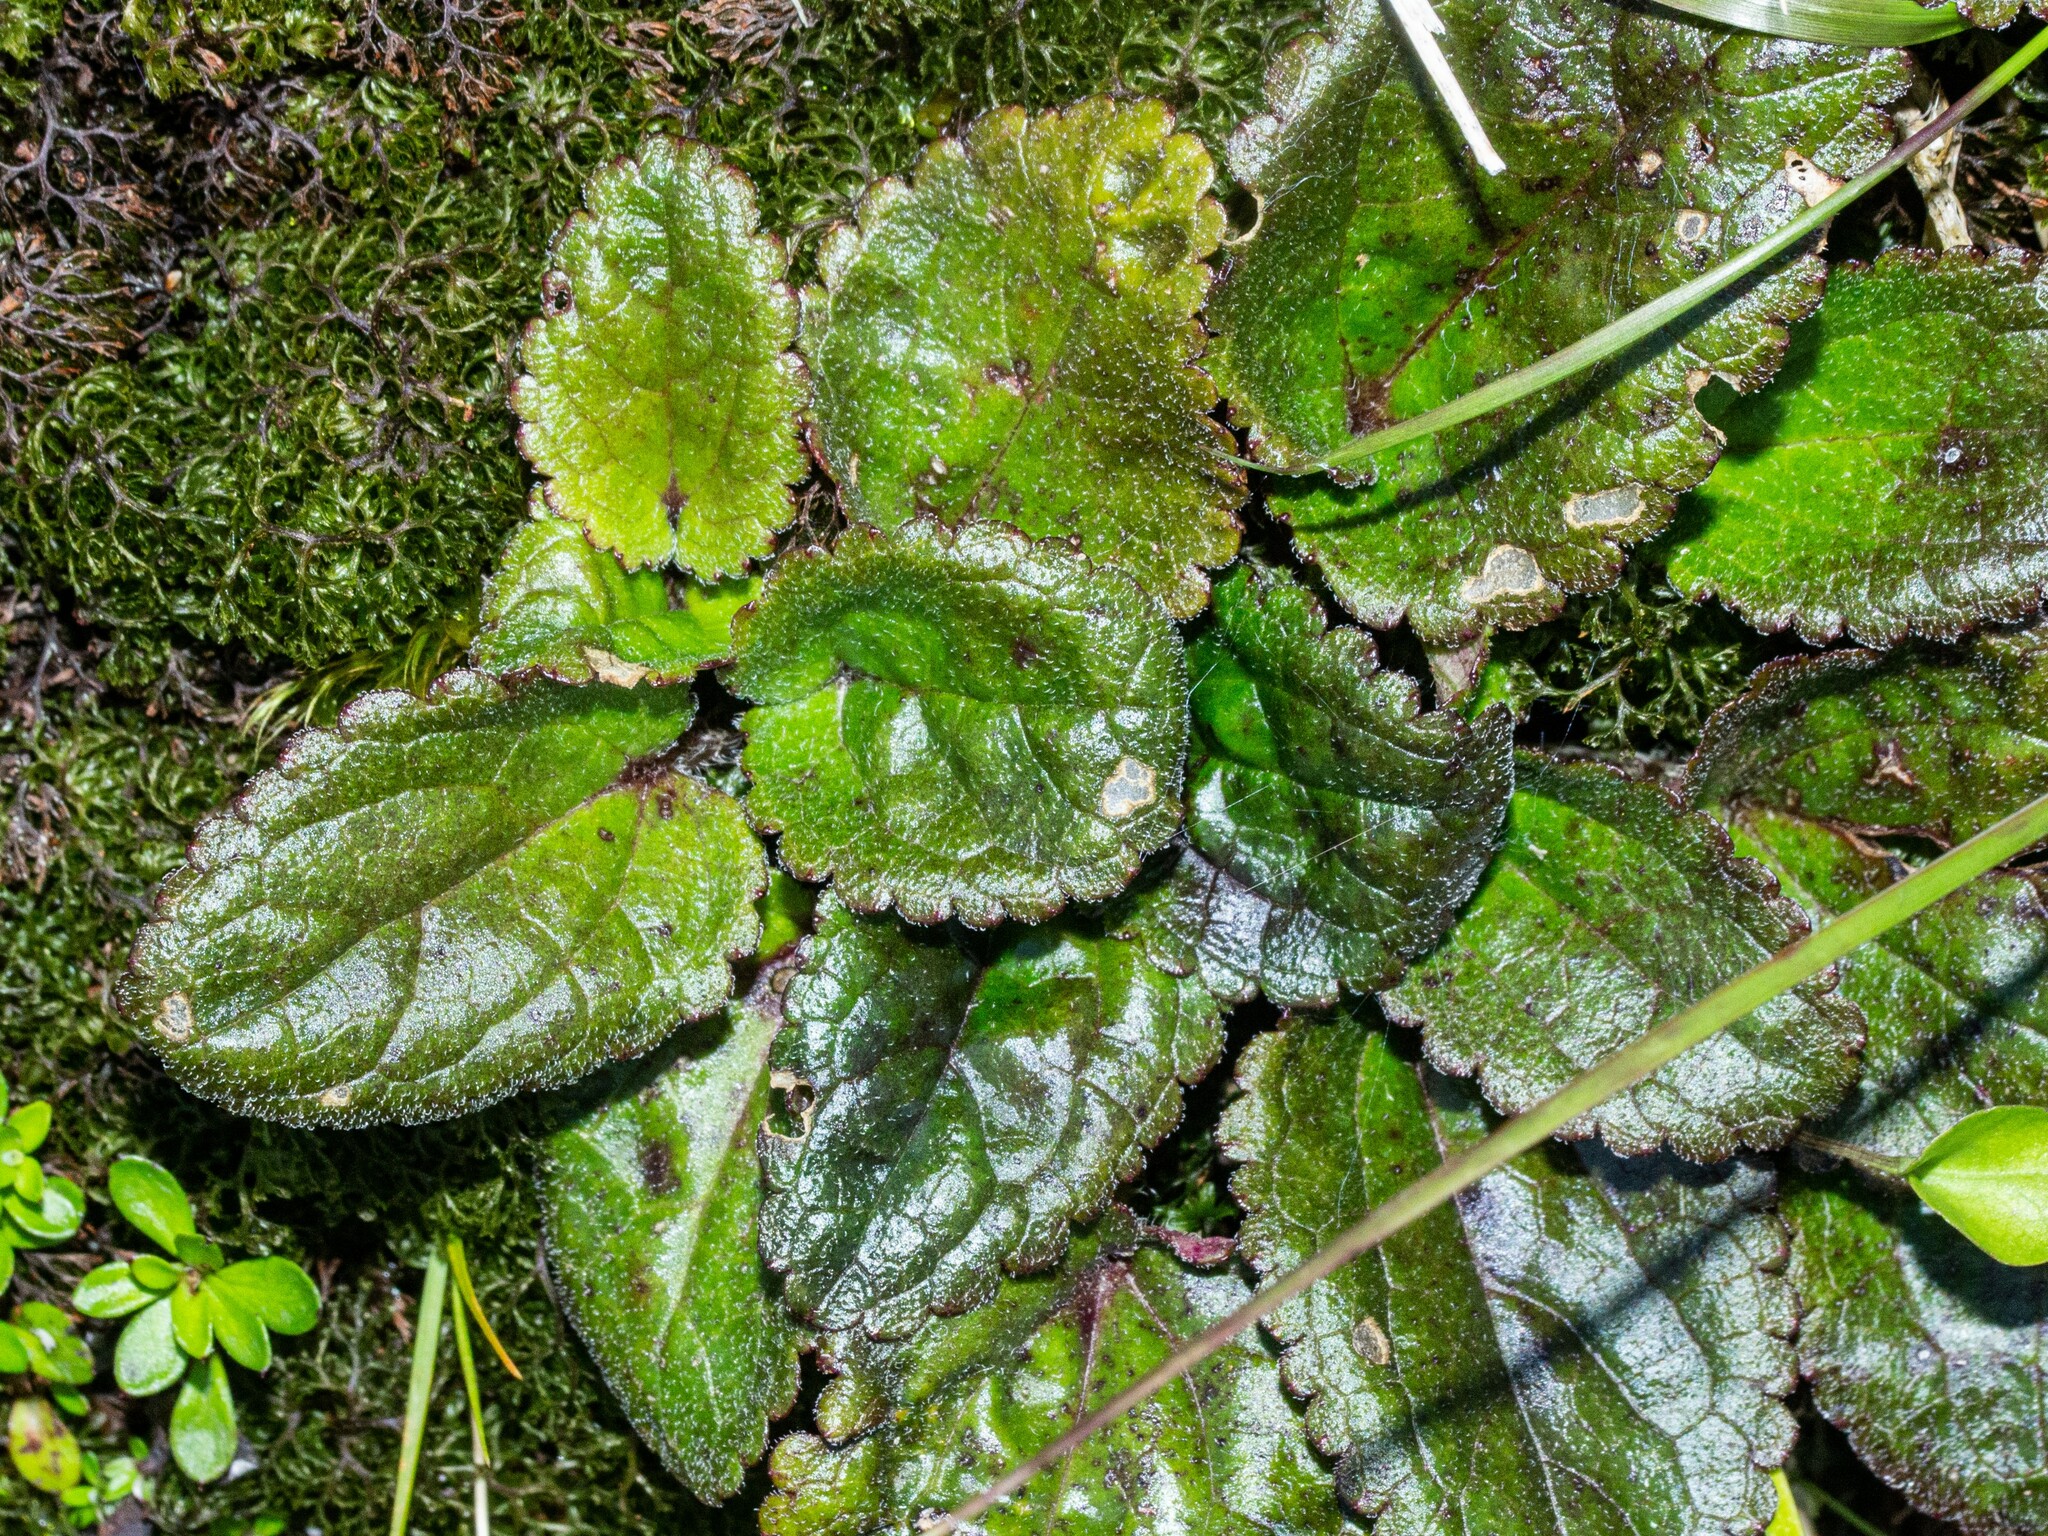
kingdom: Plantae
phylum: Tracheophyta
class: Magnoliopsida
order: Lamiales
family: Plantaginaceae
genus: Ourisia
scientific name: Ourisia macrophylla
